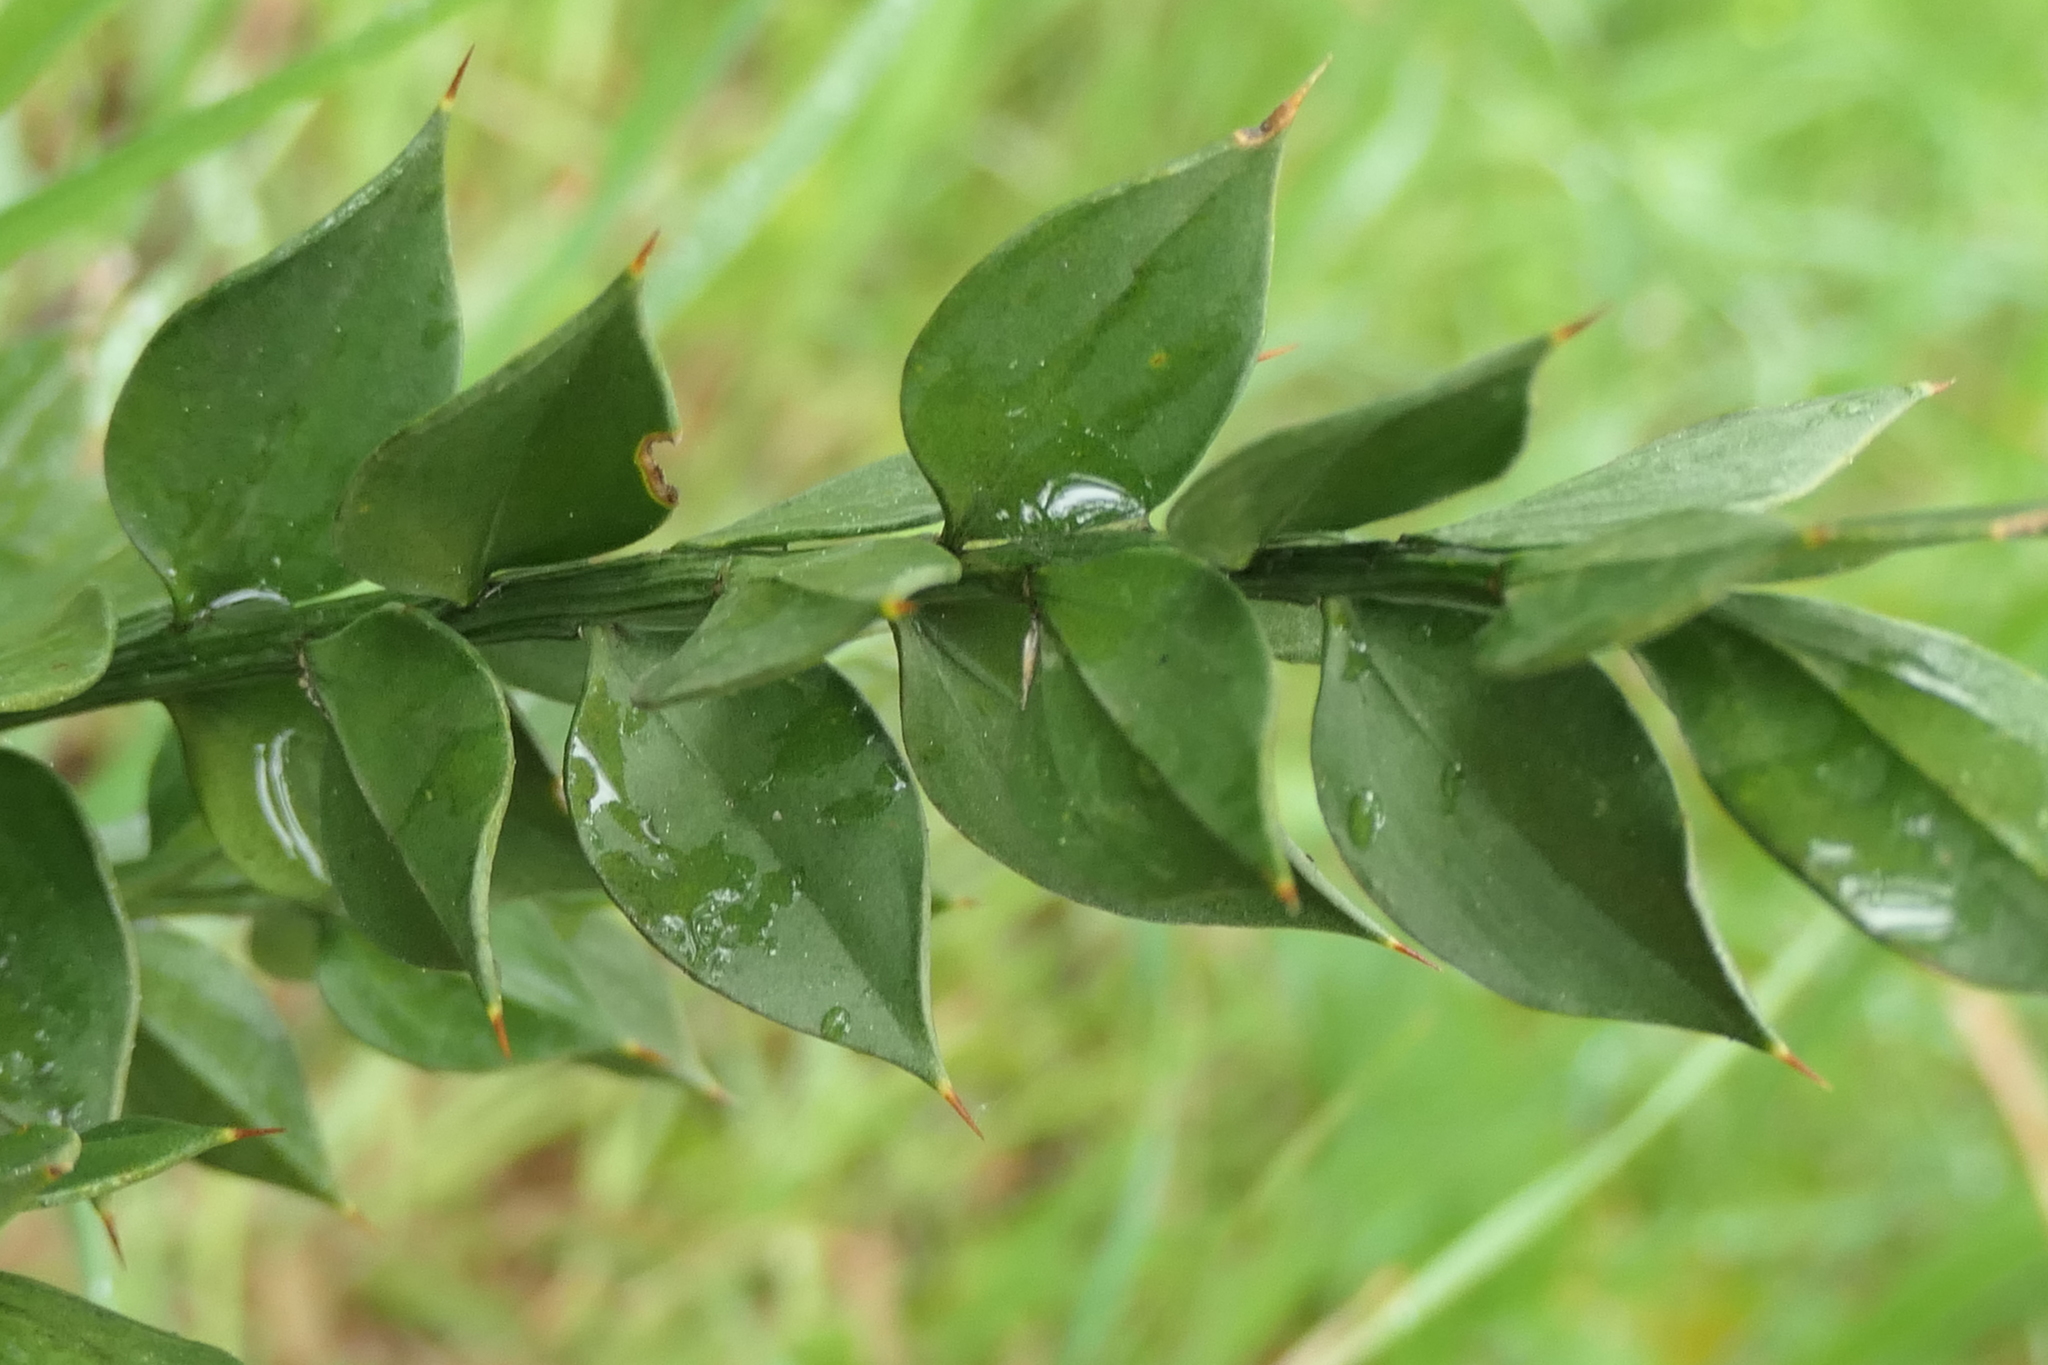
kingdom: Plantae
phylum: Tracheophyta
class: Liliopsida
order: Asparagales
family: Asparagaceae
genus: Ruscus
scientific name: Ruscus aculeatus
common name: Butcher's-broom
